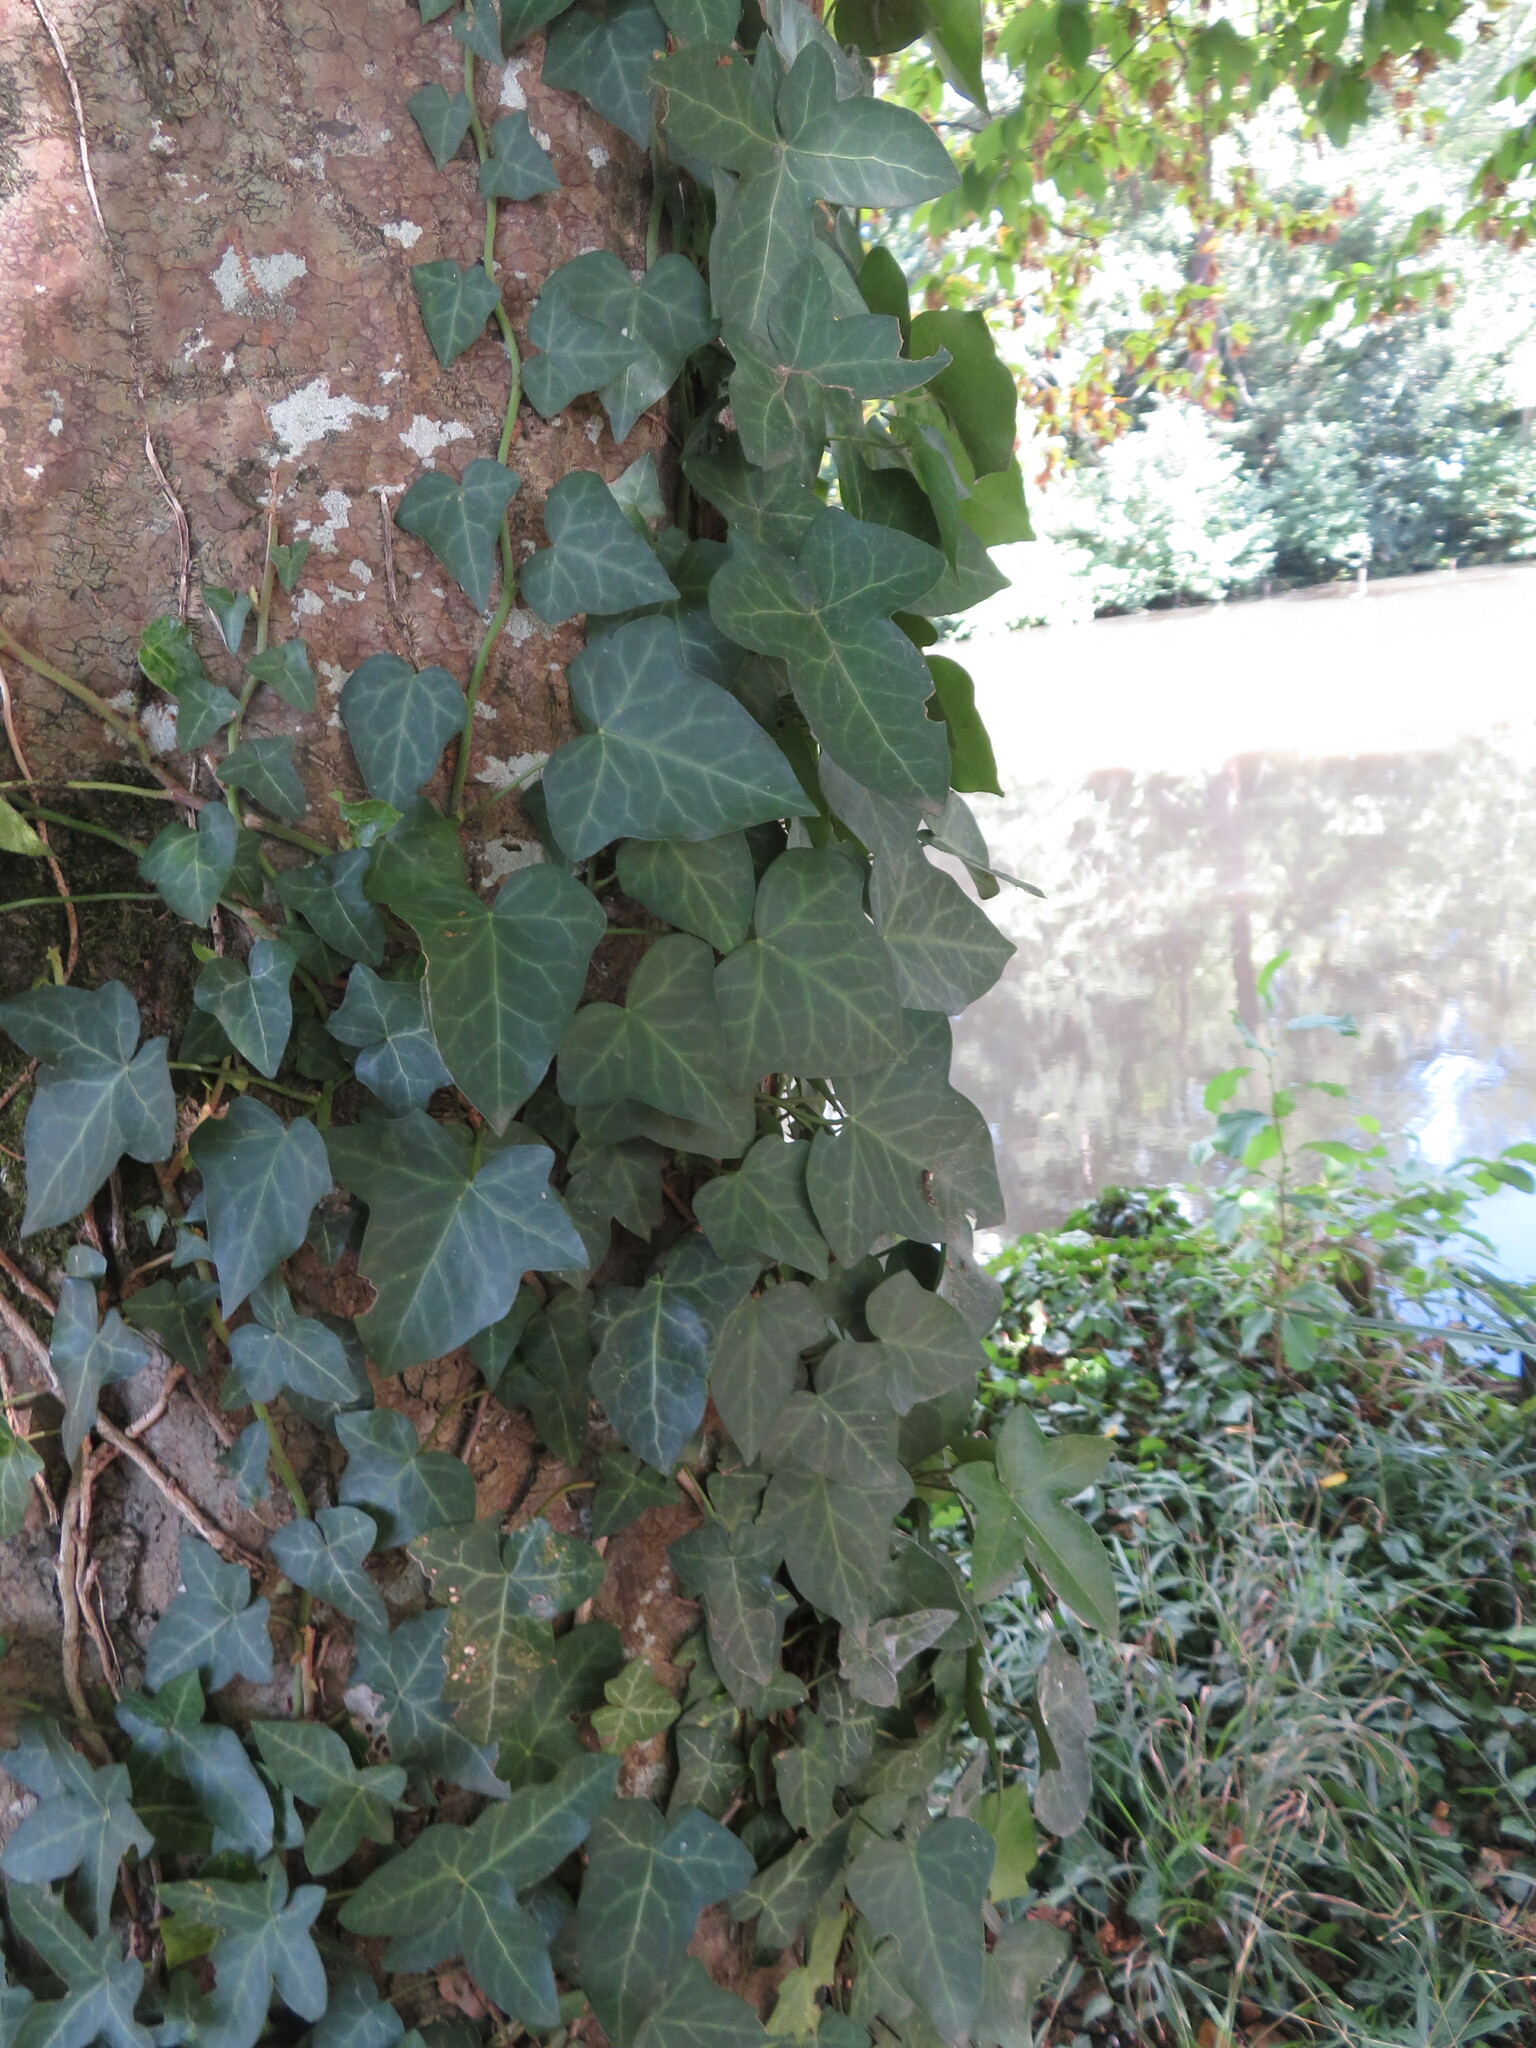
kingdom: Plantae
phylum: Tracheophyta
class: Magnoliopsida
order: Apiales
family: Araliaceae
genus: Hedera
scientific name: Hedera helix
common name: Ivy
